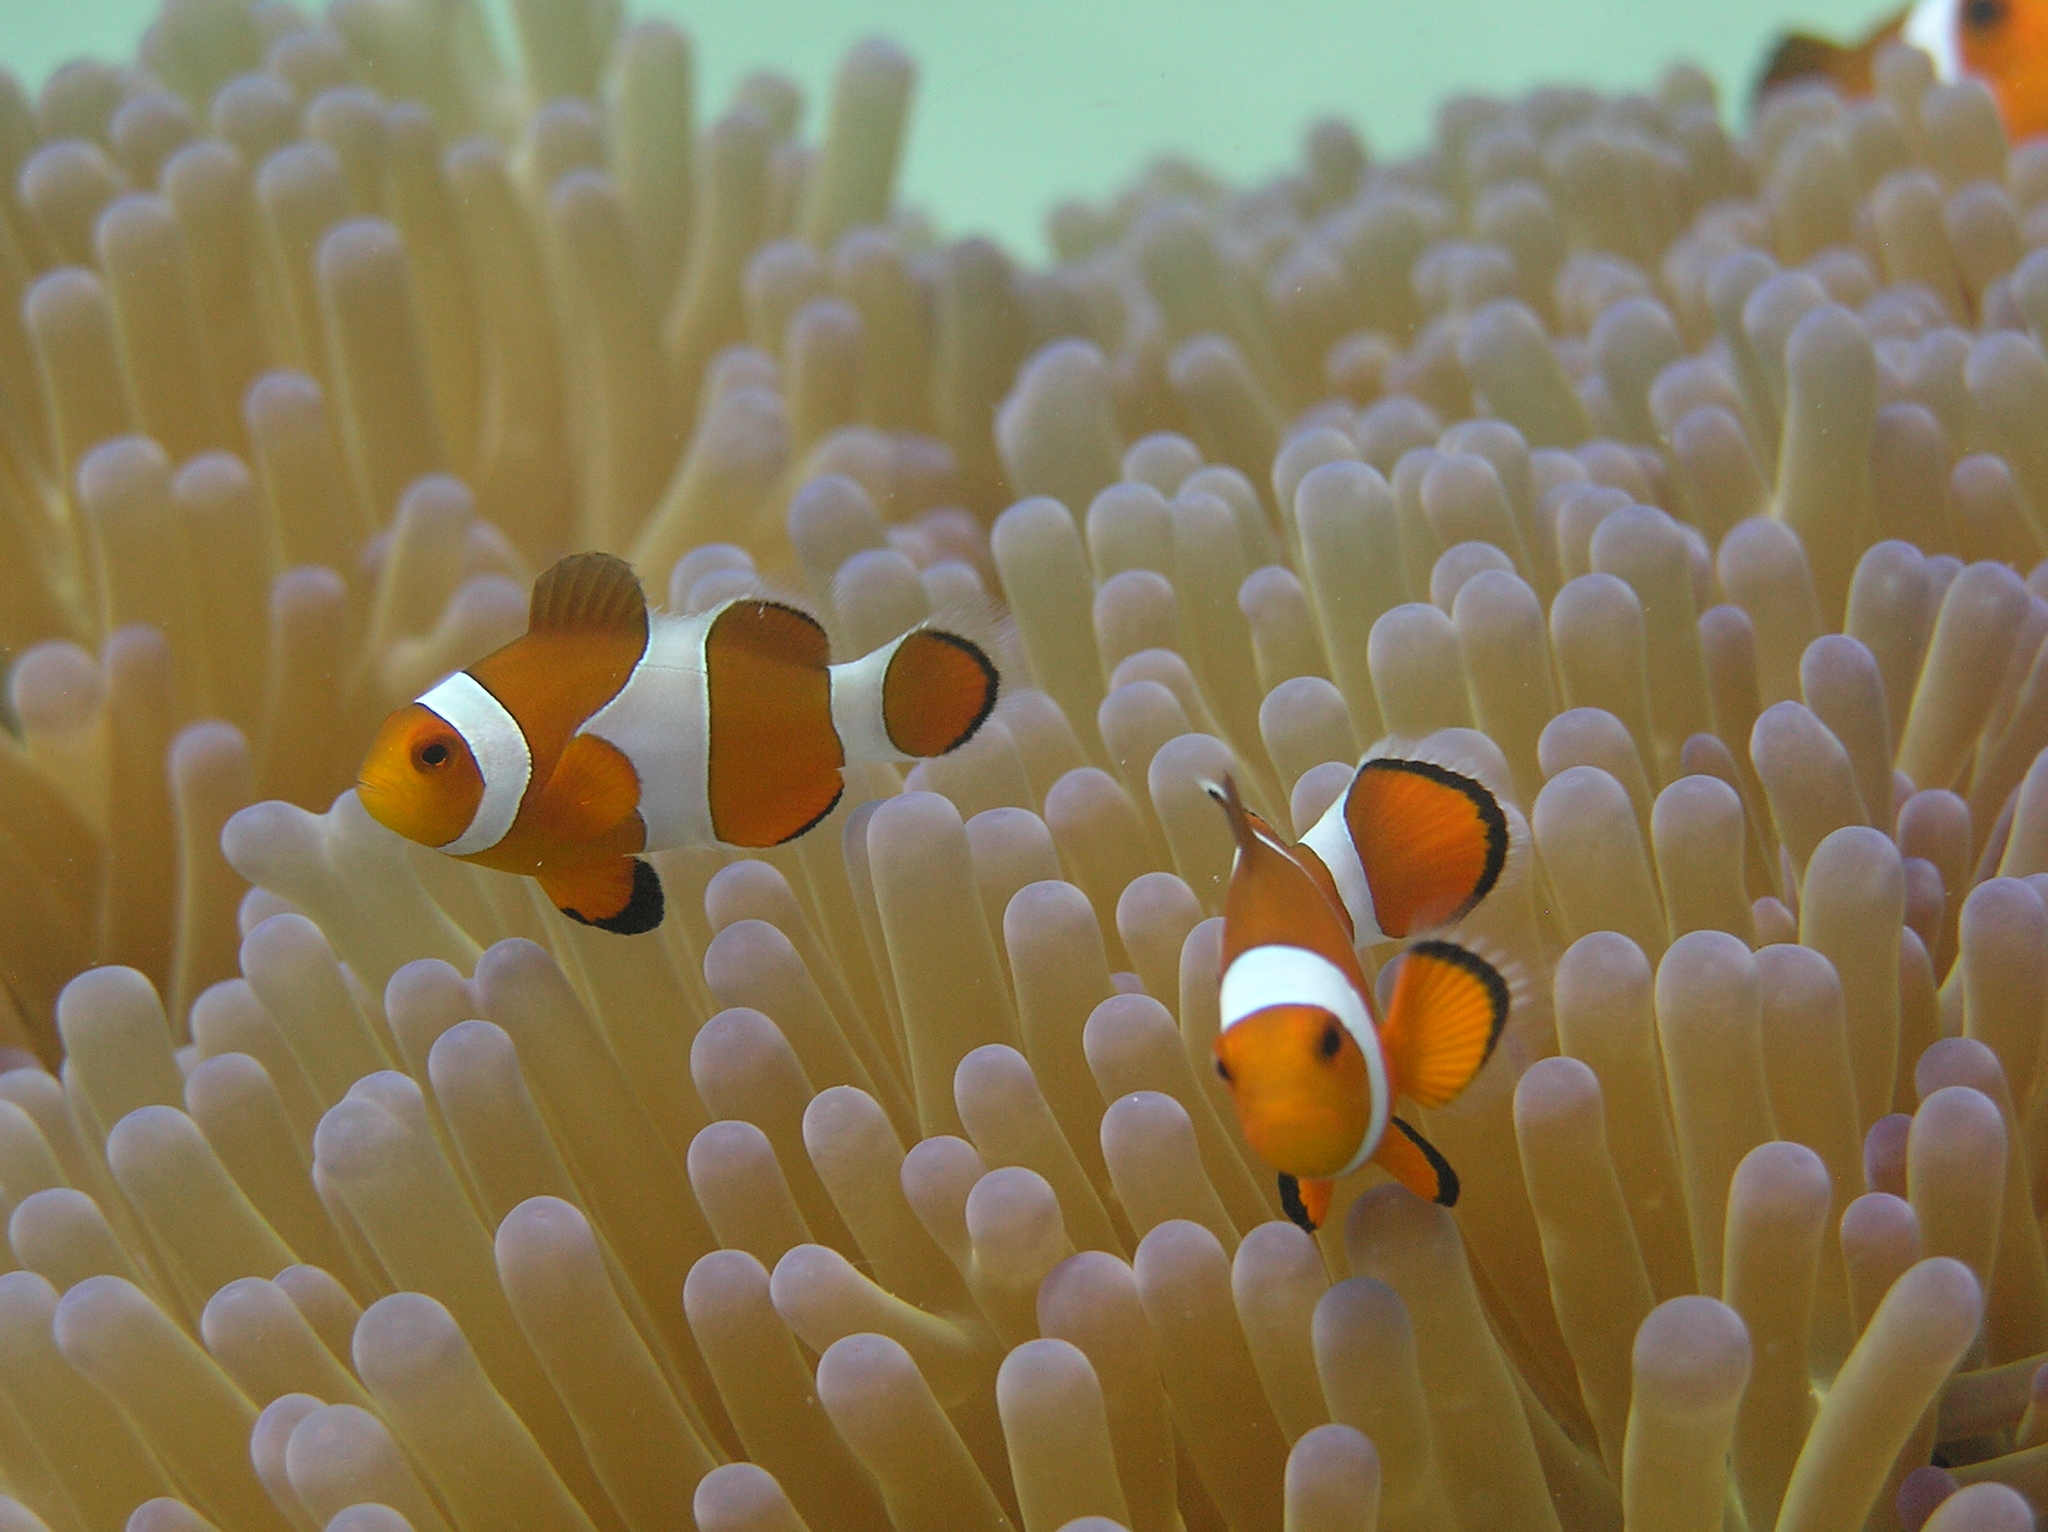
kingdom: Animalia
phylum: Chordata
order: Perciformes
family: Pomacentridae
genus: Amphiprion
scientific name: Amphiprion ocellaris
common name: Clown anemonefish
